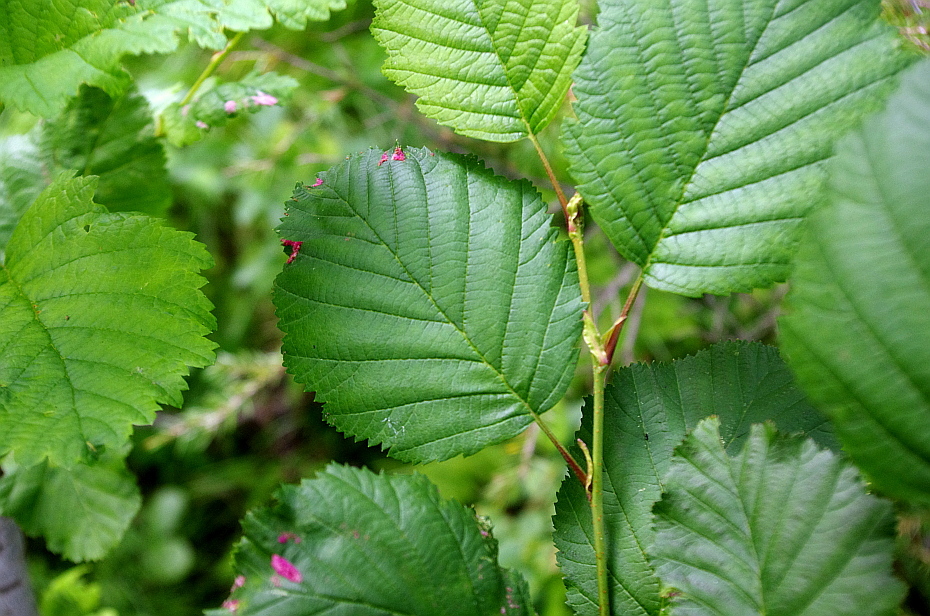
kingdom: Plantae
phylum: Tracheophyta
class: Magnoliopsida
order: Fagales
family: Betulaceae
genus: Alnus
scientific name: Alnus incana
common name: Grey alder
